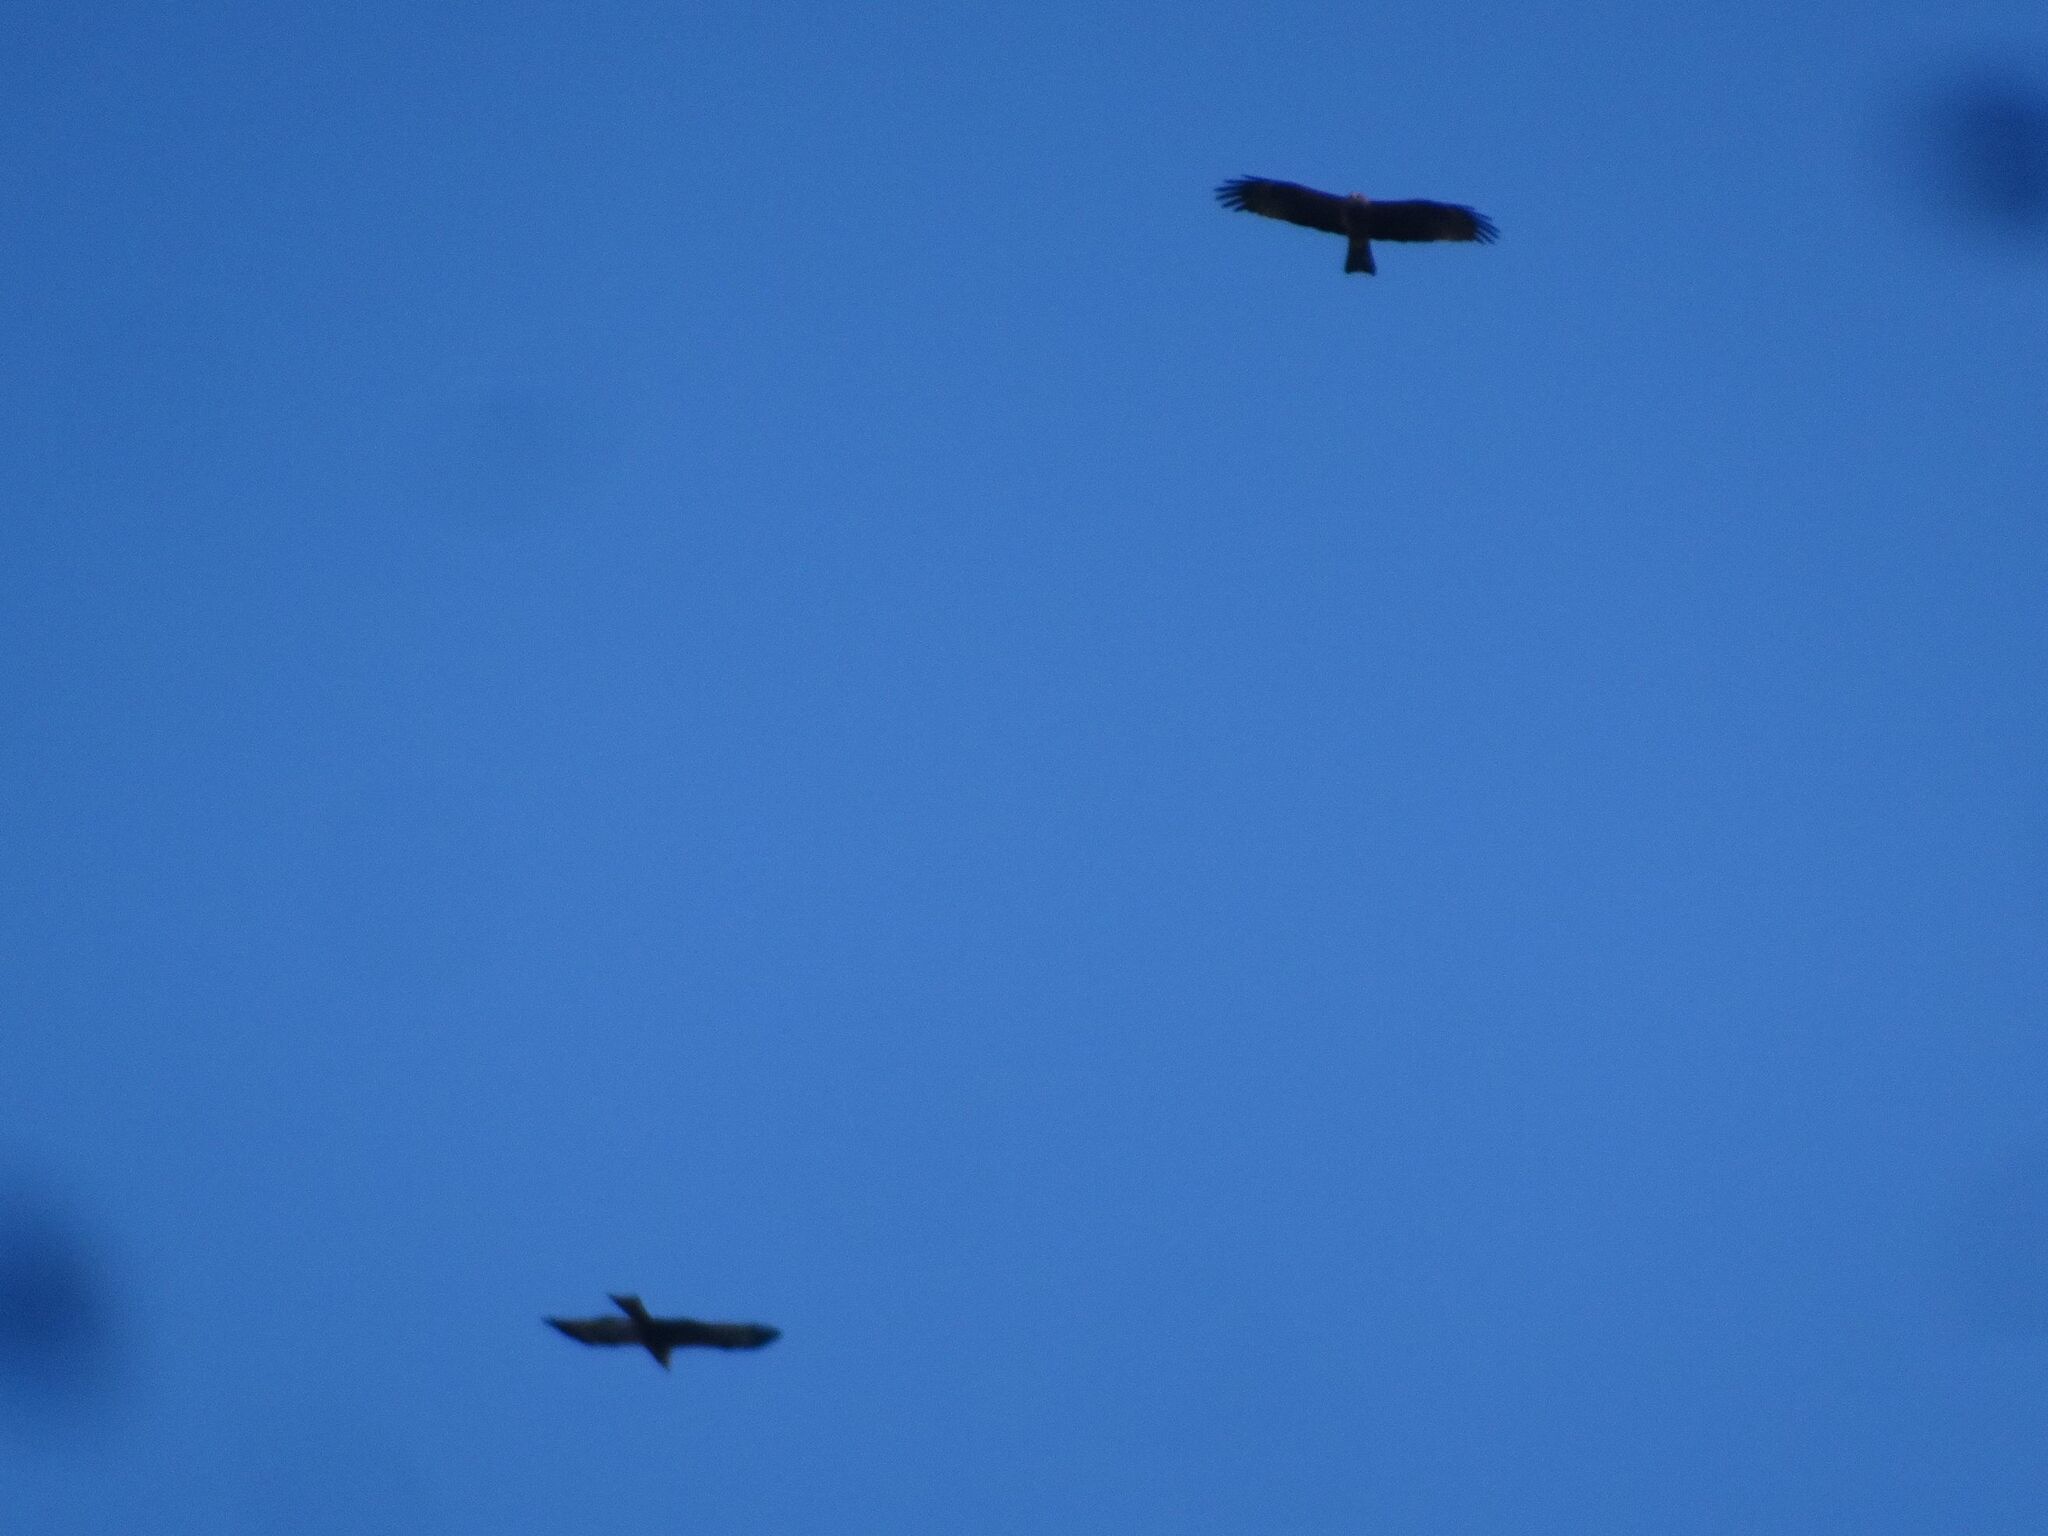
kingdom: Animalia
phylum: Chordata
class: Aves
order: Accipitriformes
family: Accipitridae
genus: Milvus
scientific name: Milvus migrans
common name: Black kite
